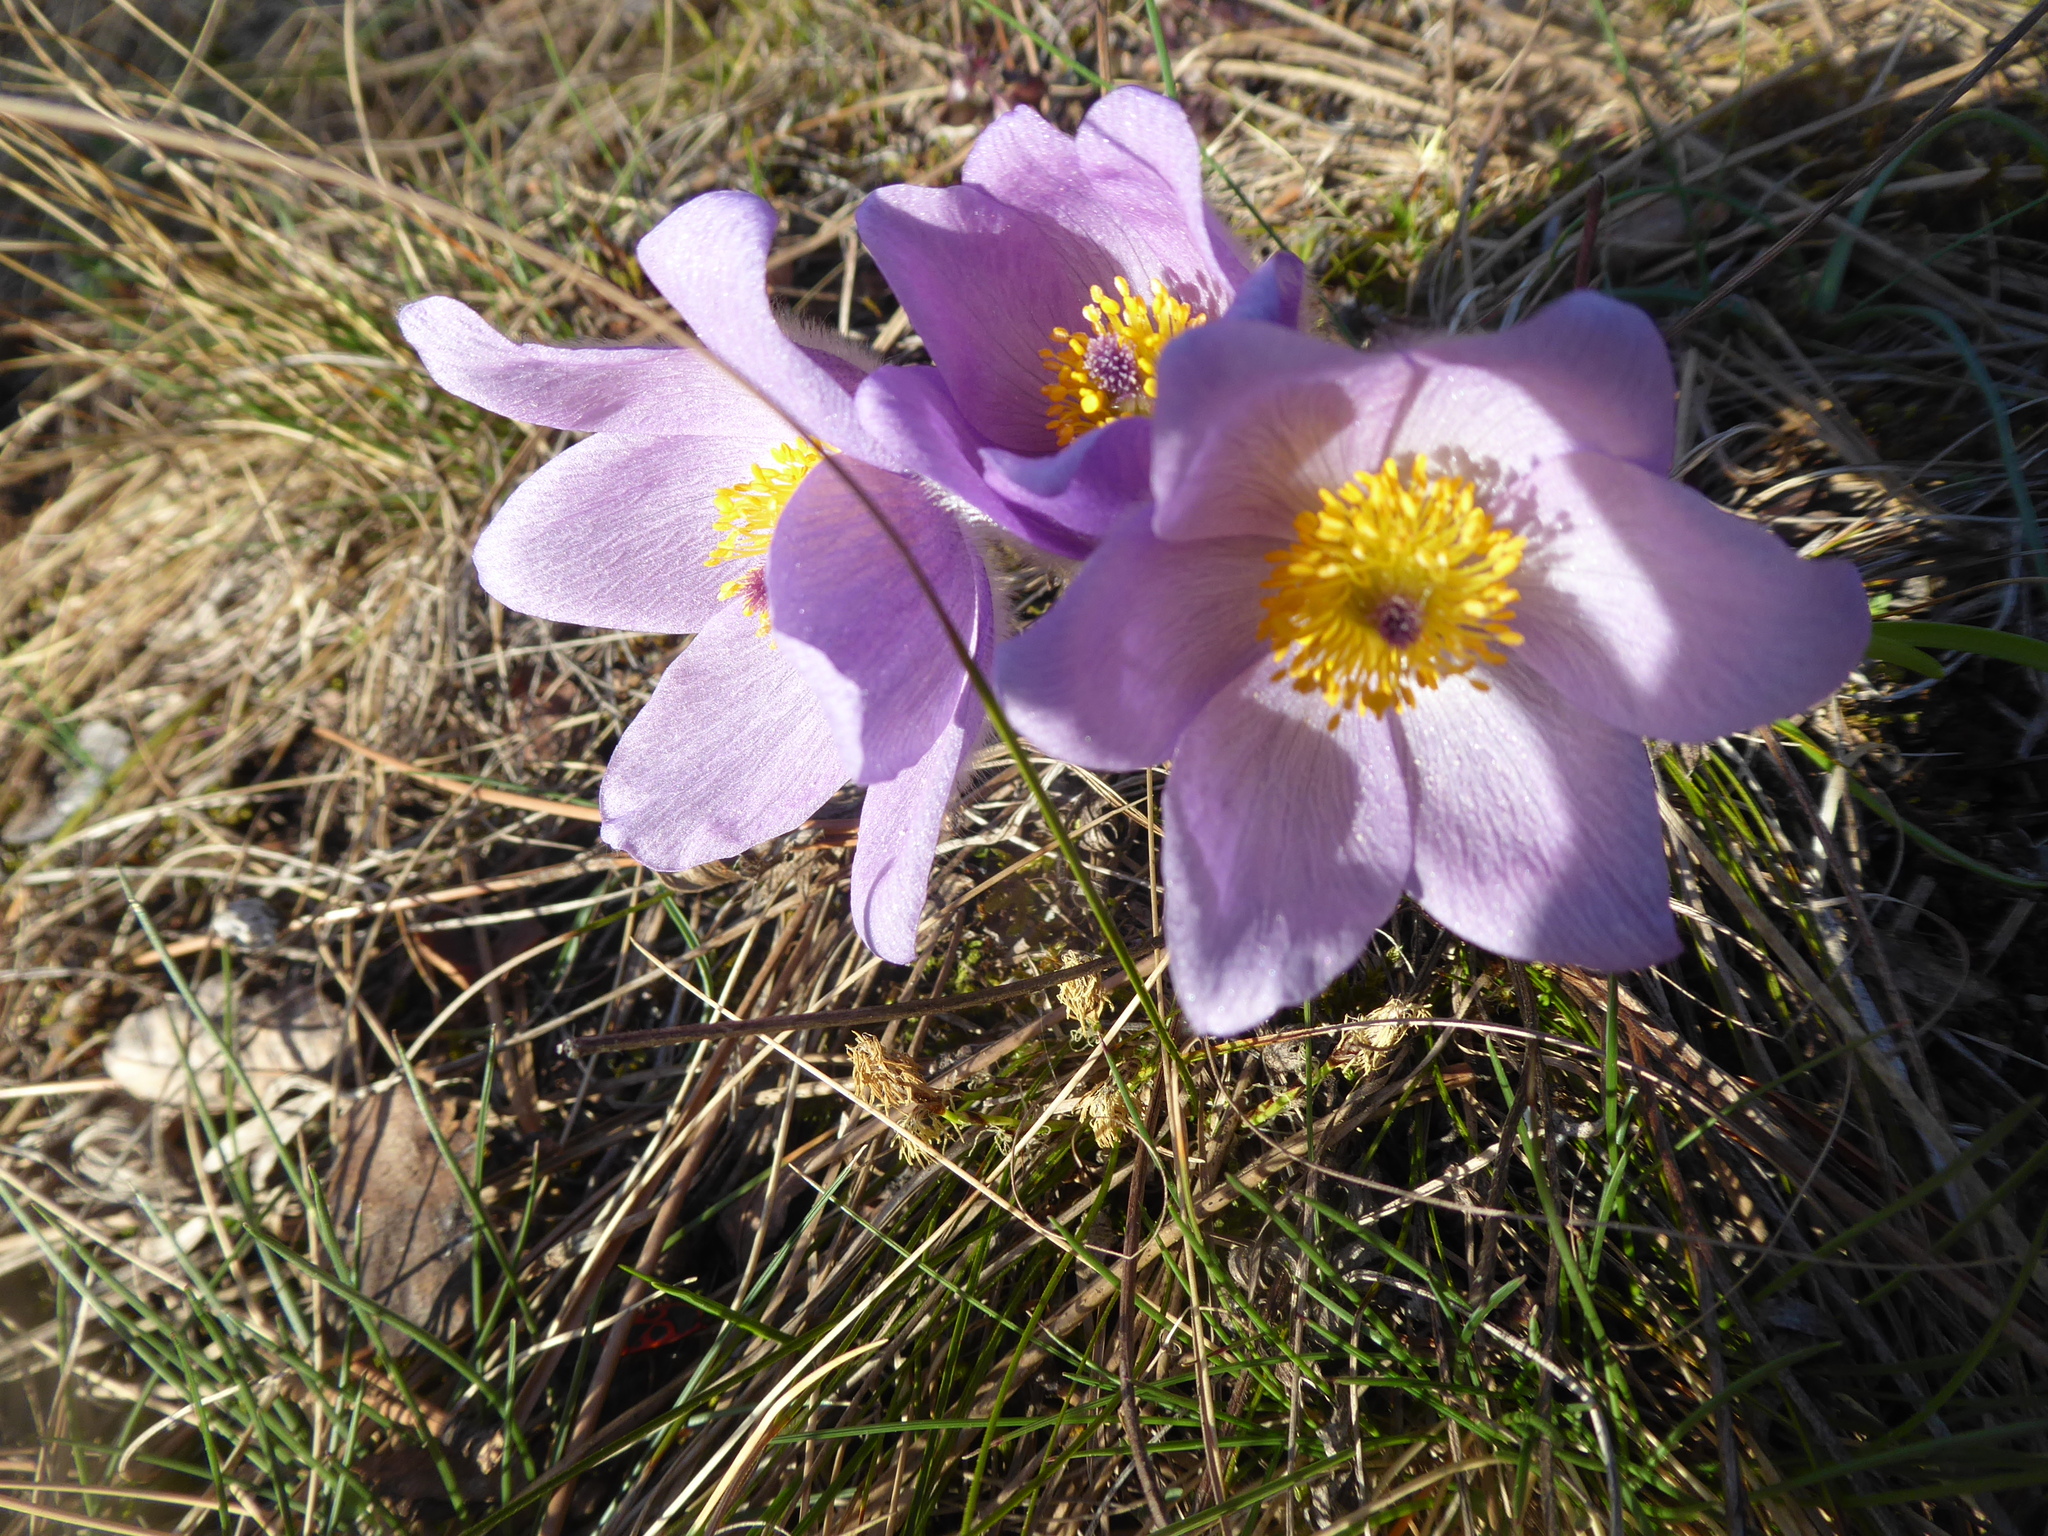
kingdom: Plantae
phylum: Tracheophyta
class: Magnoliopsida
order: Ranunculales
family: Ranunculaceae
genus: Pulsatilla
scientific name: Pulsatilla grandis
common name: Greater pasque flower
